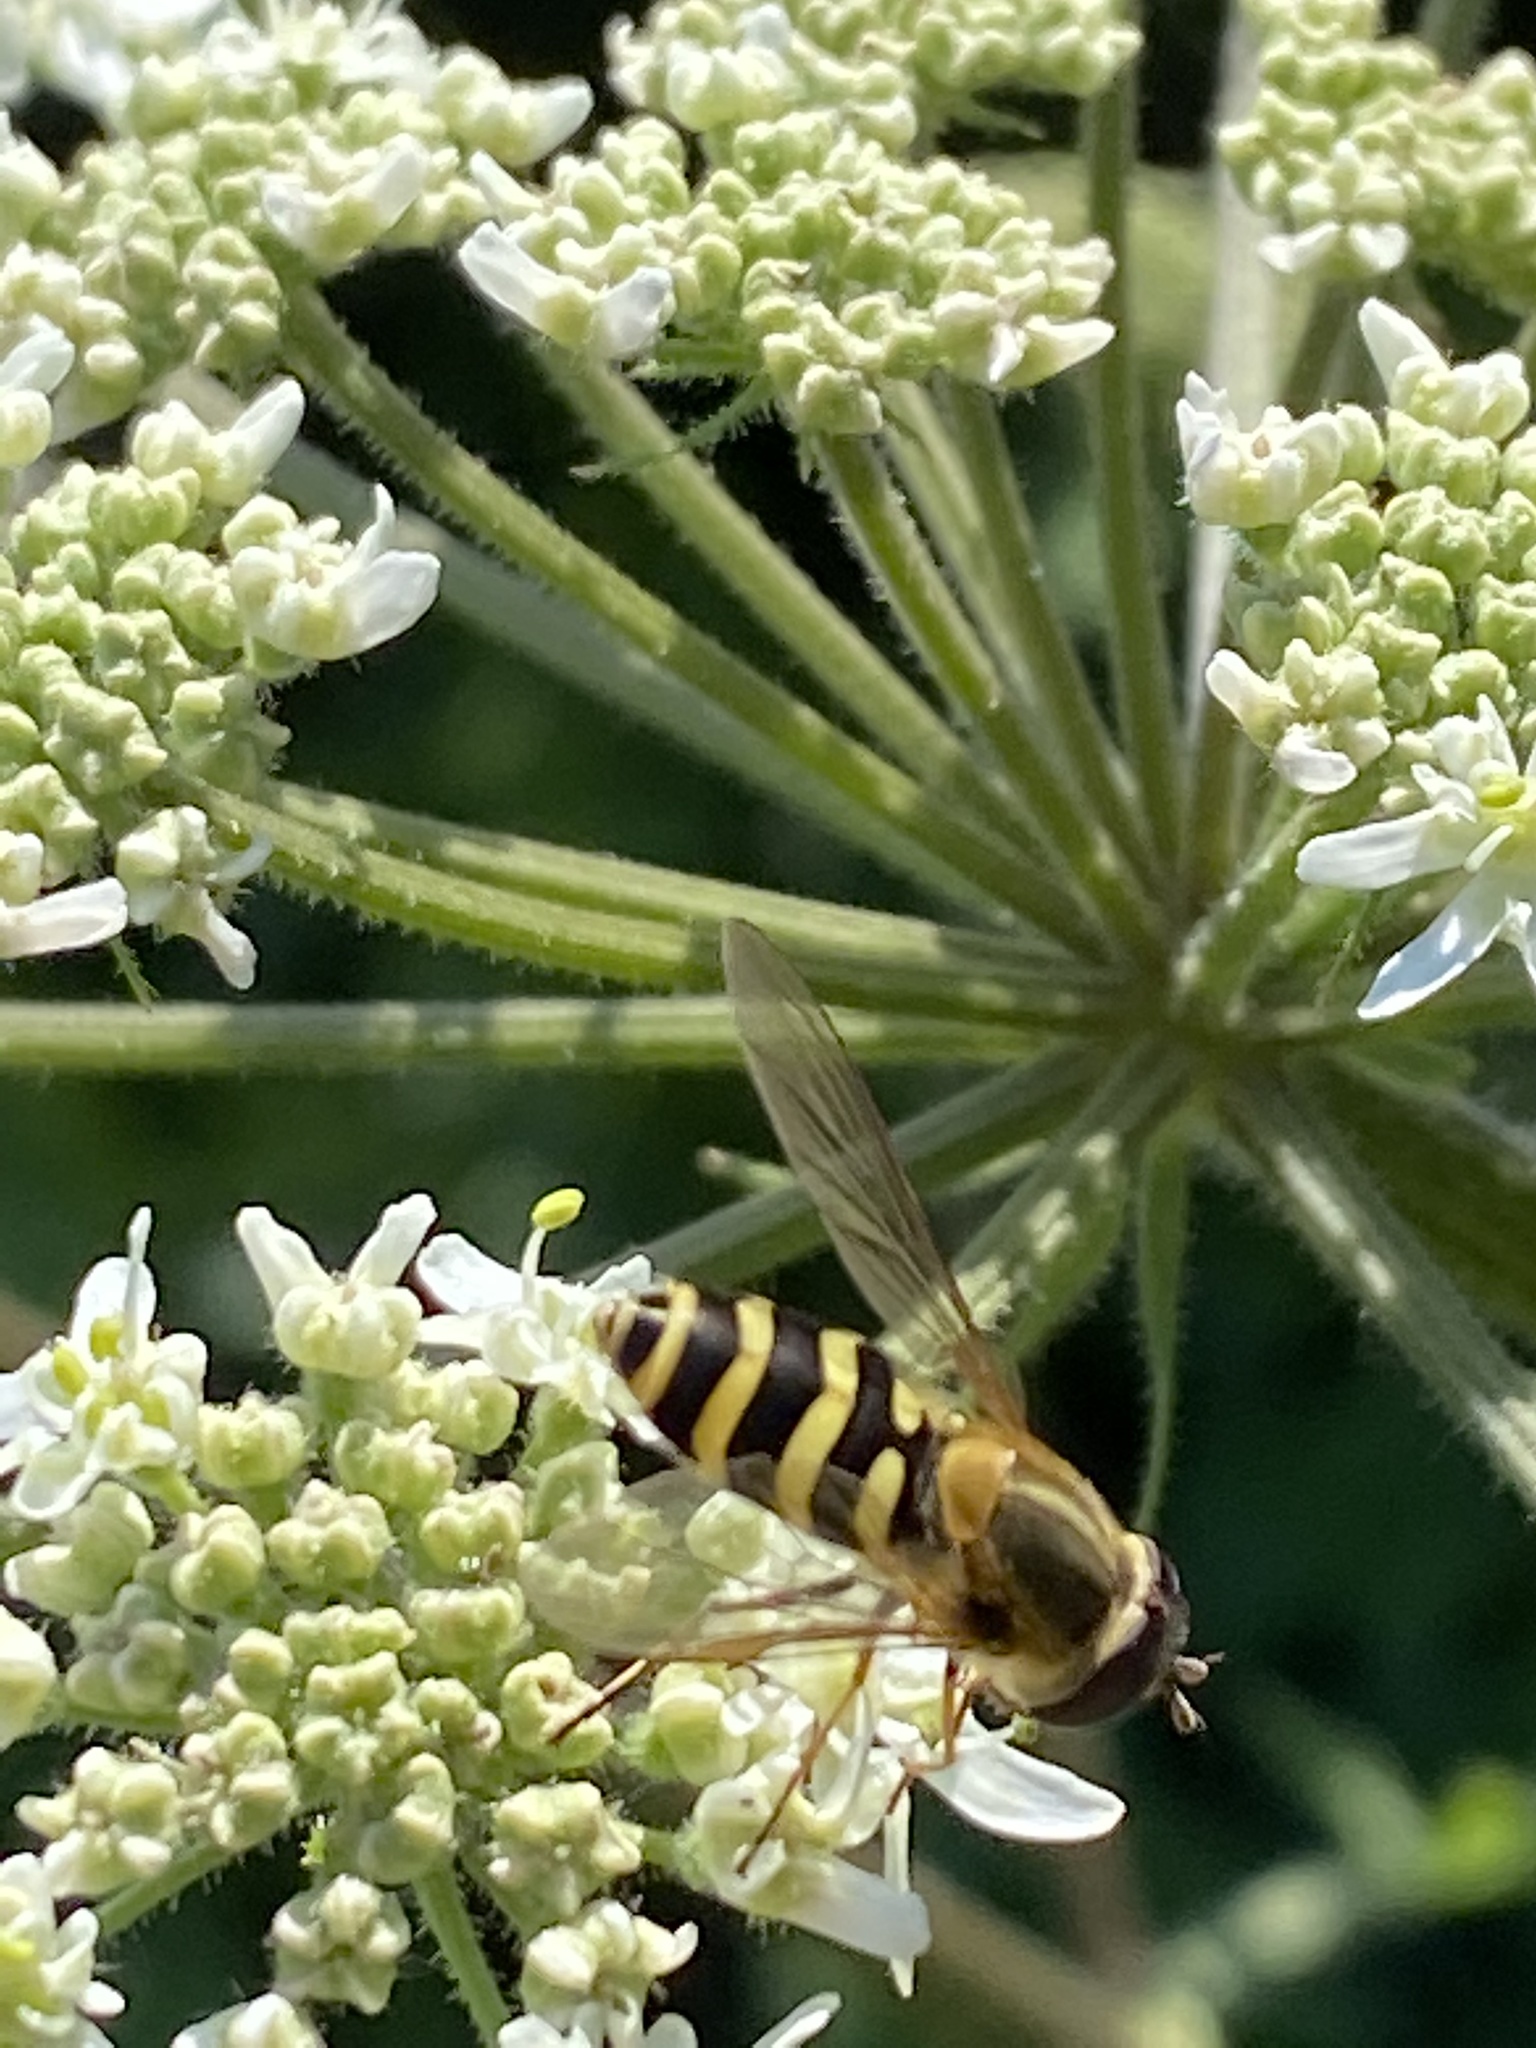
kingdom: Animalia
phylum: Arthropoda
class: Insecta
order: Diptera
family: Syrphidae
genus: Syrphus
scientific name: Syrphus
